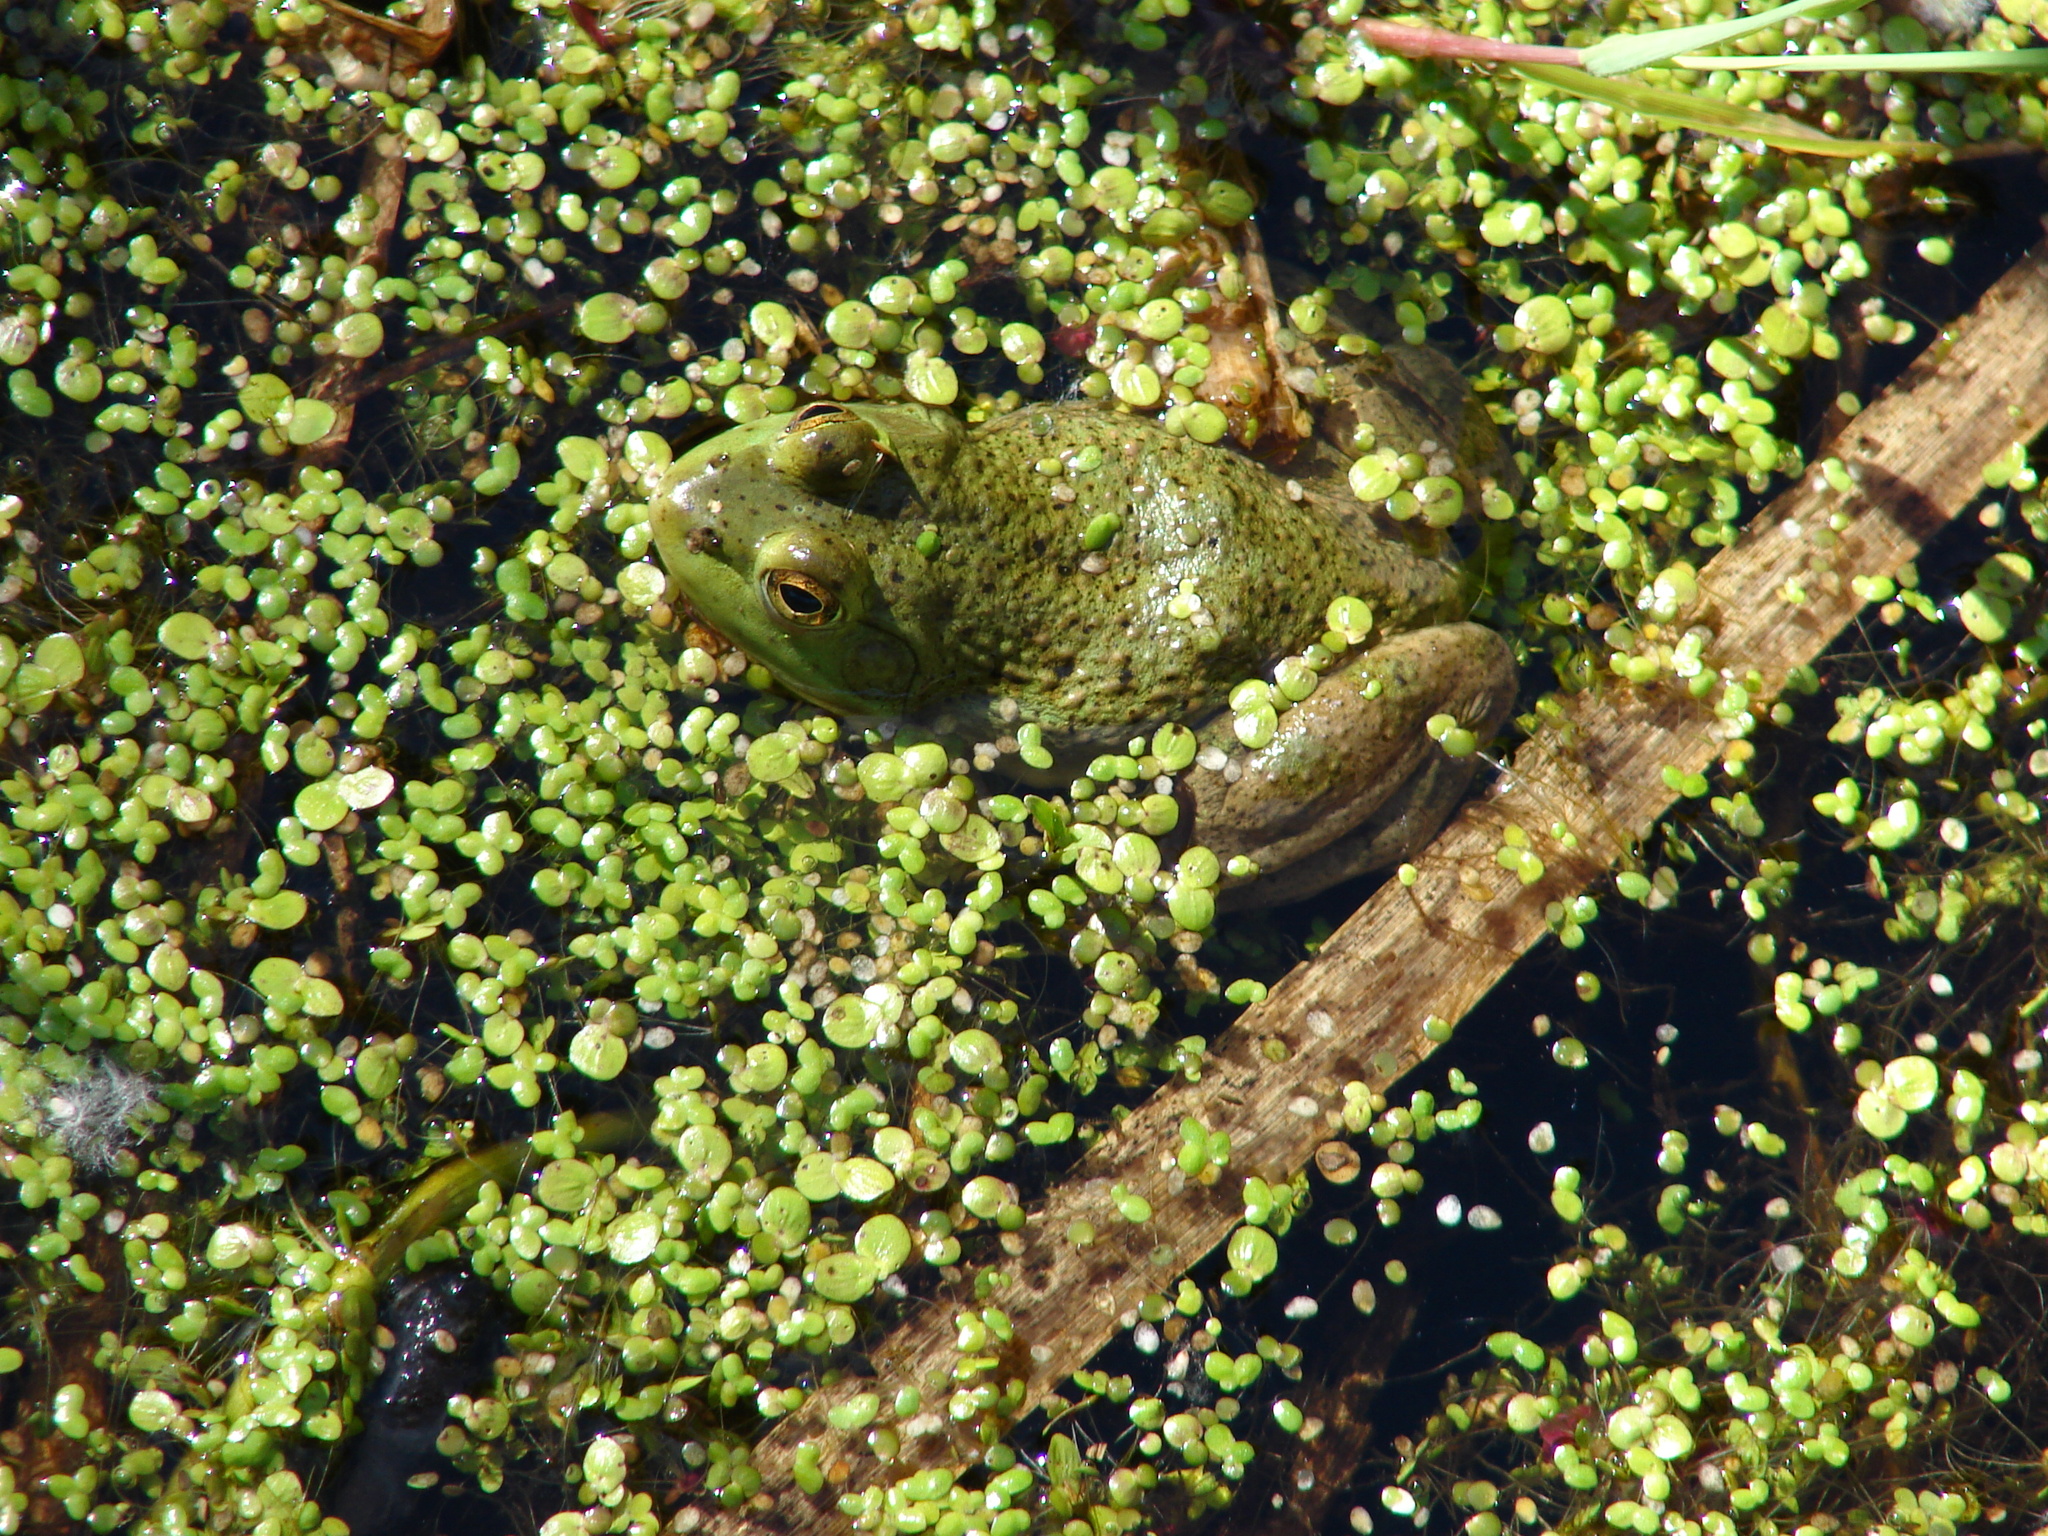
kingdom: Animalia
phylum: Chordata
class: Amphibia
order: Anura
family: Ranidae
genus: Lithobates
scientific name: Lithobates catesbeianus
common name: American bullfrog
